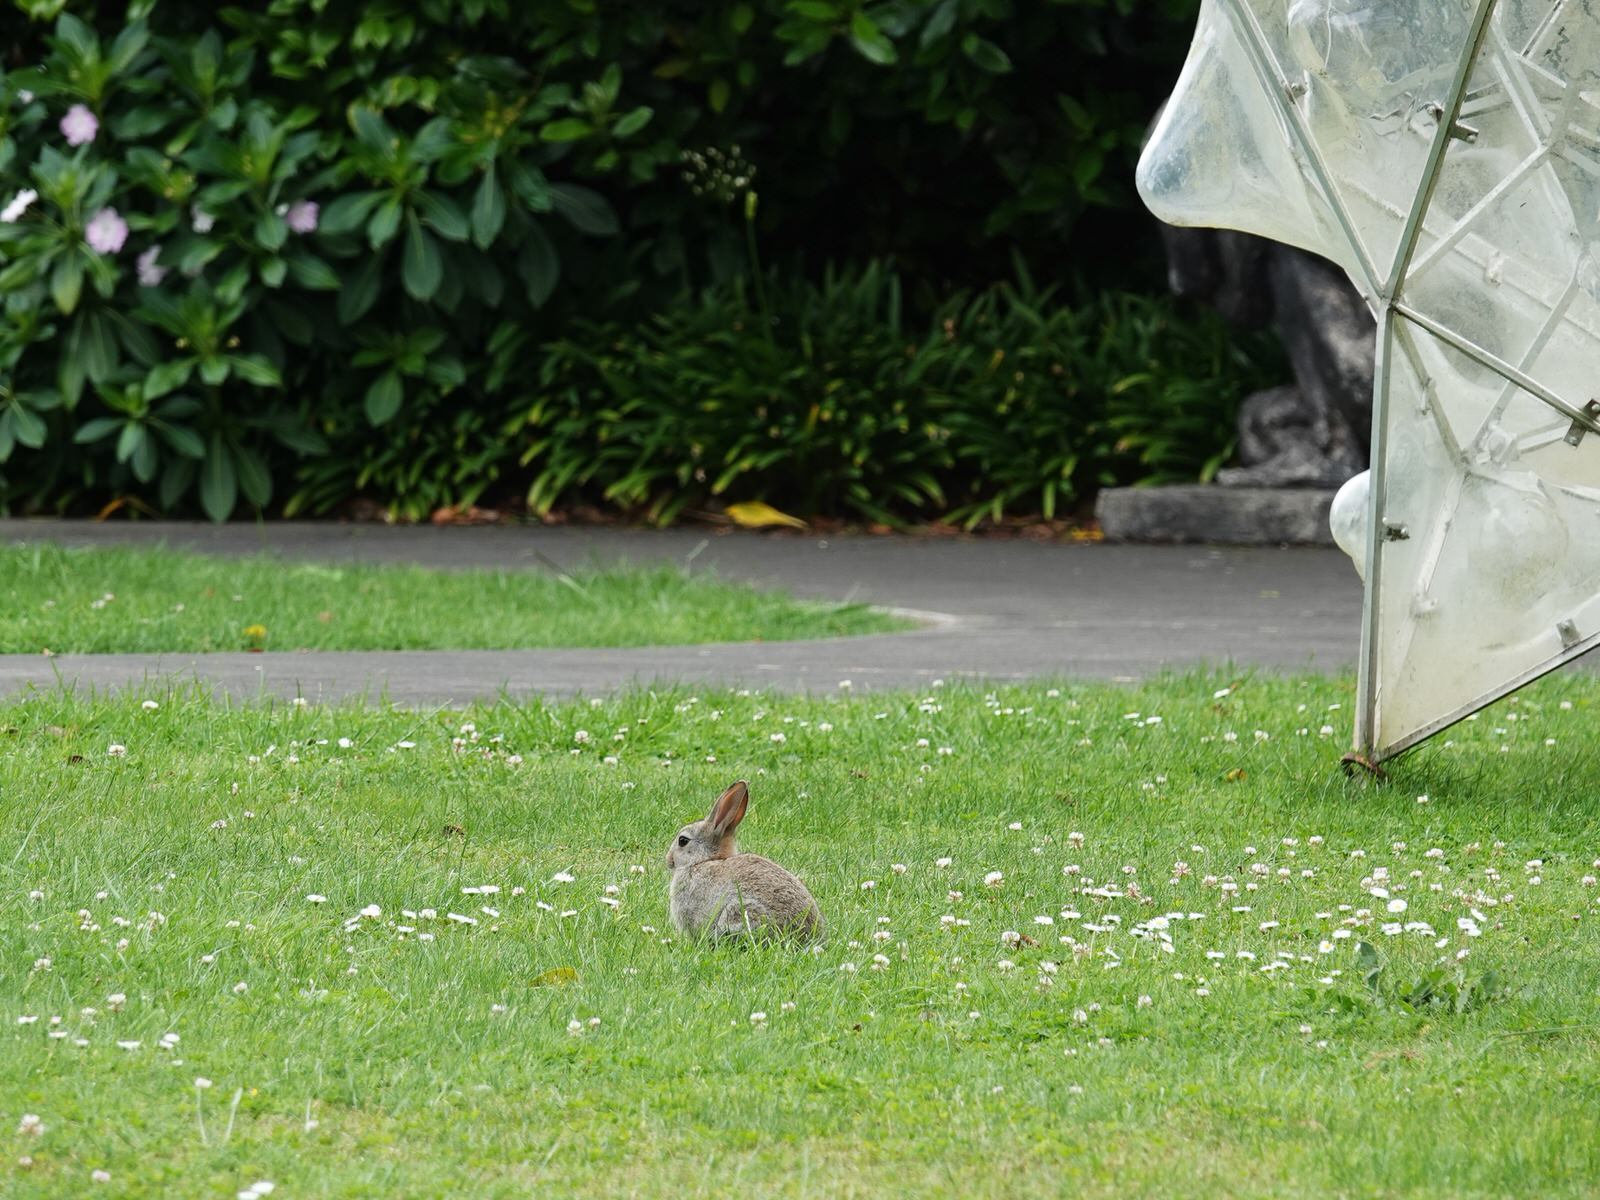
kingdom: Animalia
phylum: Chordata
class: Mammalia
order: Lagomorpha
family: Leporidae
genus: Oryctolagus
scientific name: Oryctolagus cuniculus
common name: European rabbit
